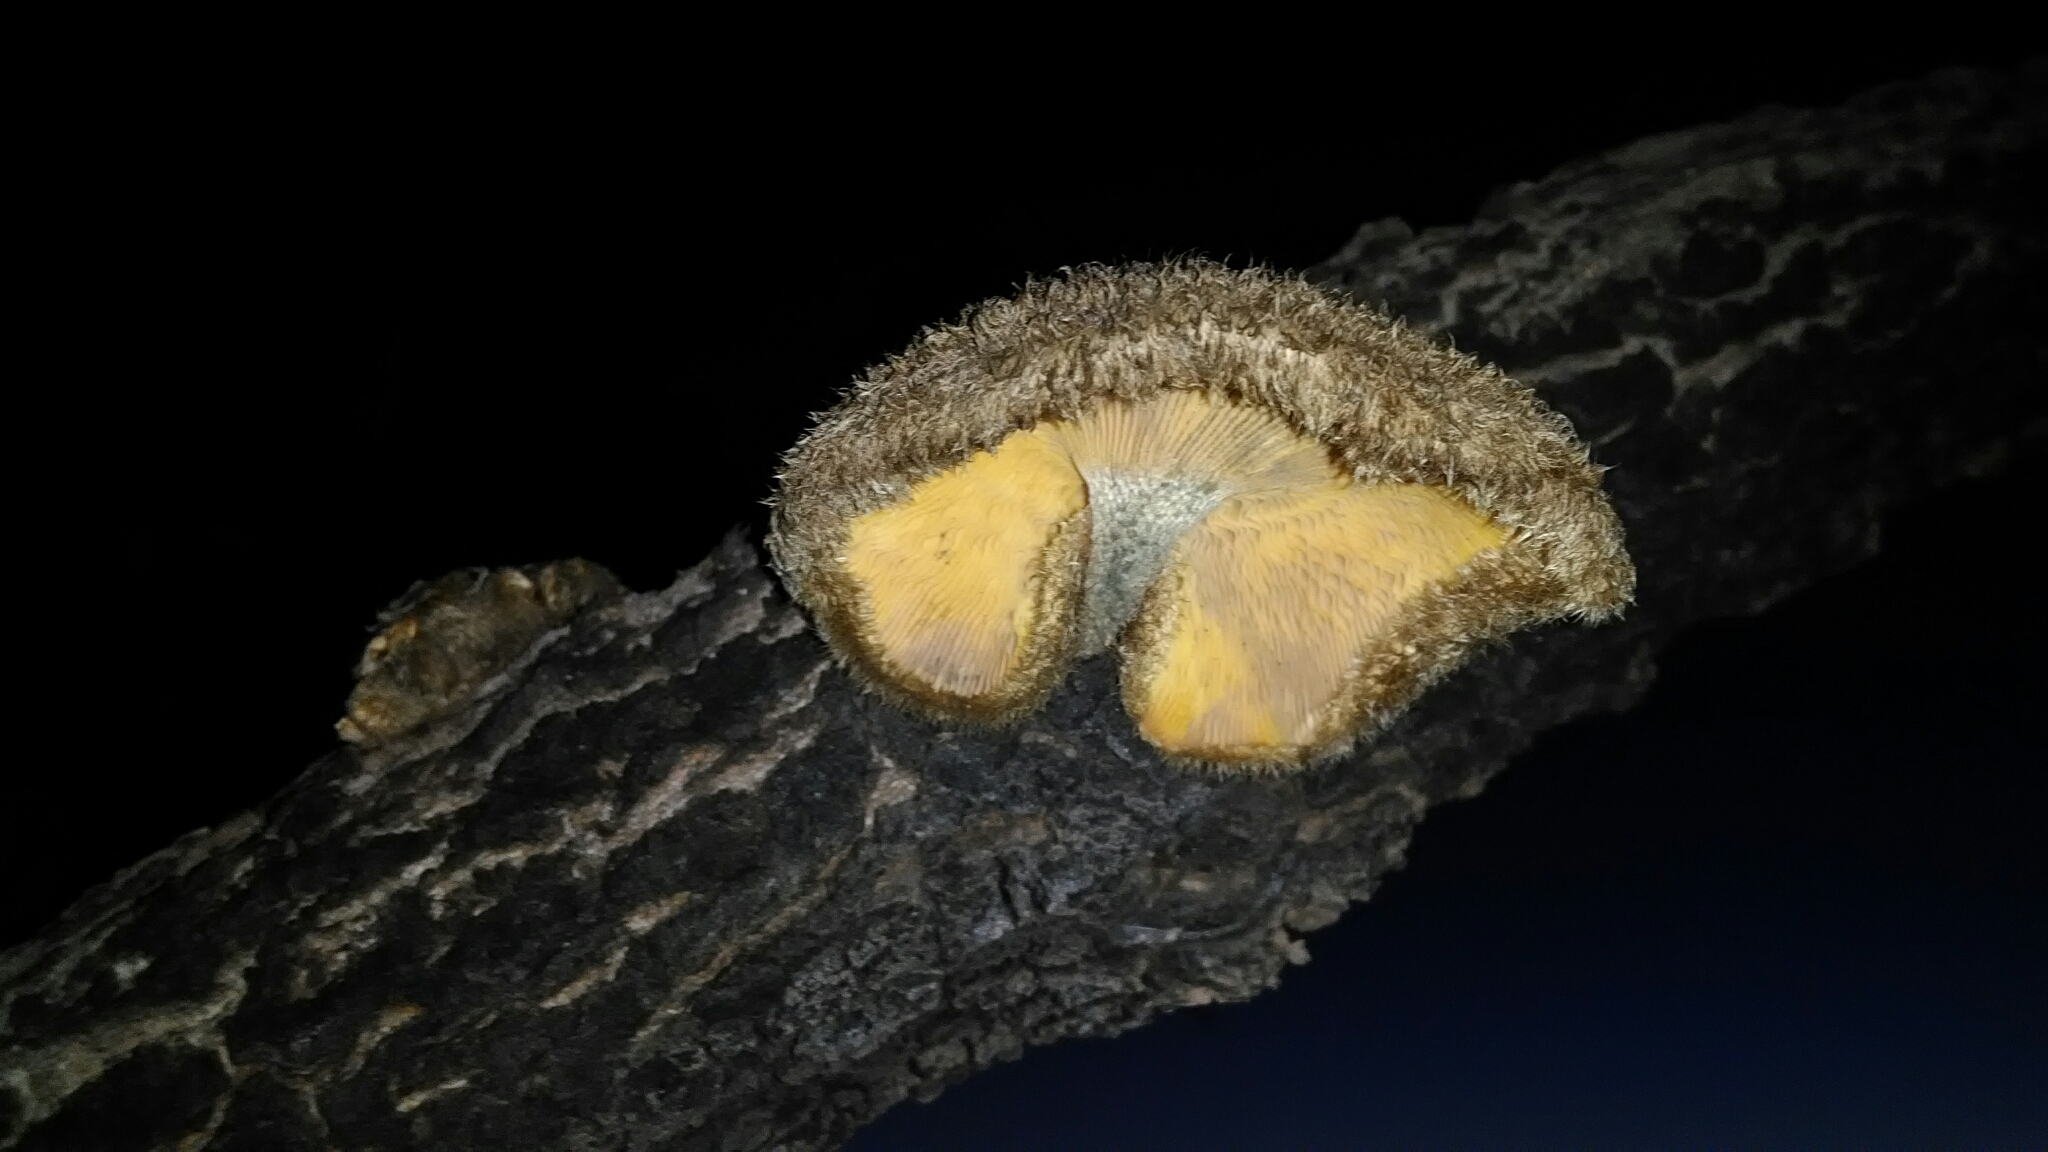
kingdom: Fungi
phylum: Basidiomycota
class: Agaricomycetes
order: Polyporales
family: Polyporaceae
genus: Lentinus
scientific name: Lentinus crinitus
